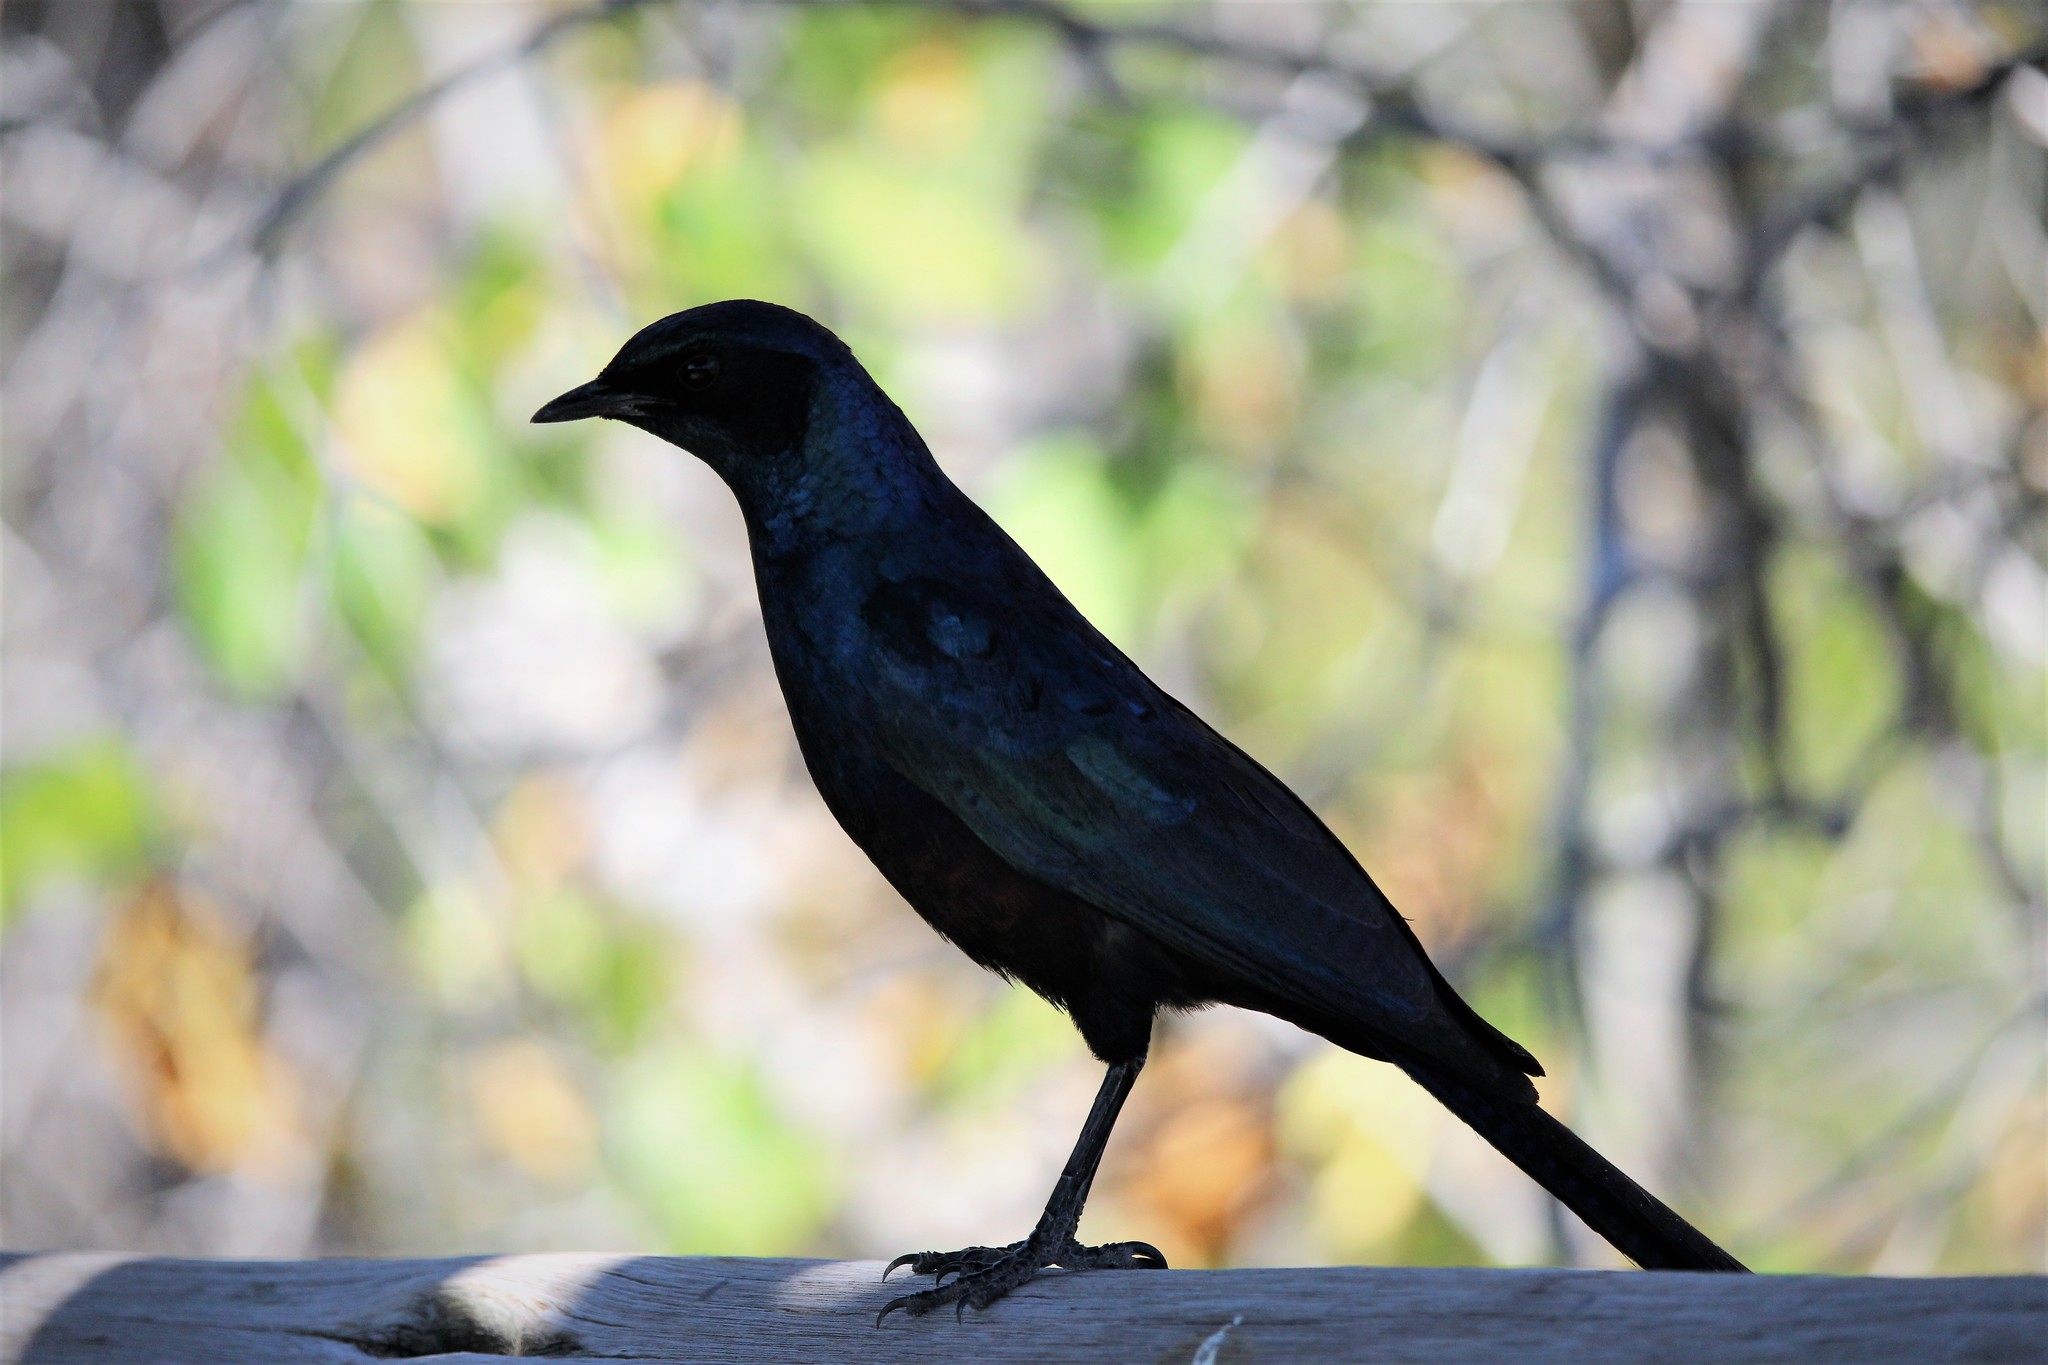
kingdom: Animalia
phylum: Chordata
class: Aves
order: Passeriformes
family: Sturnidae
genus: Lamprotornis
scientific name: Lamprotornis australis
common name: Burchell's starling
